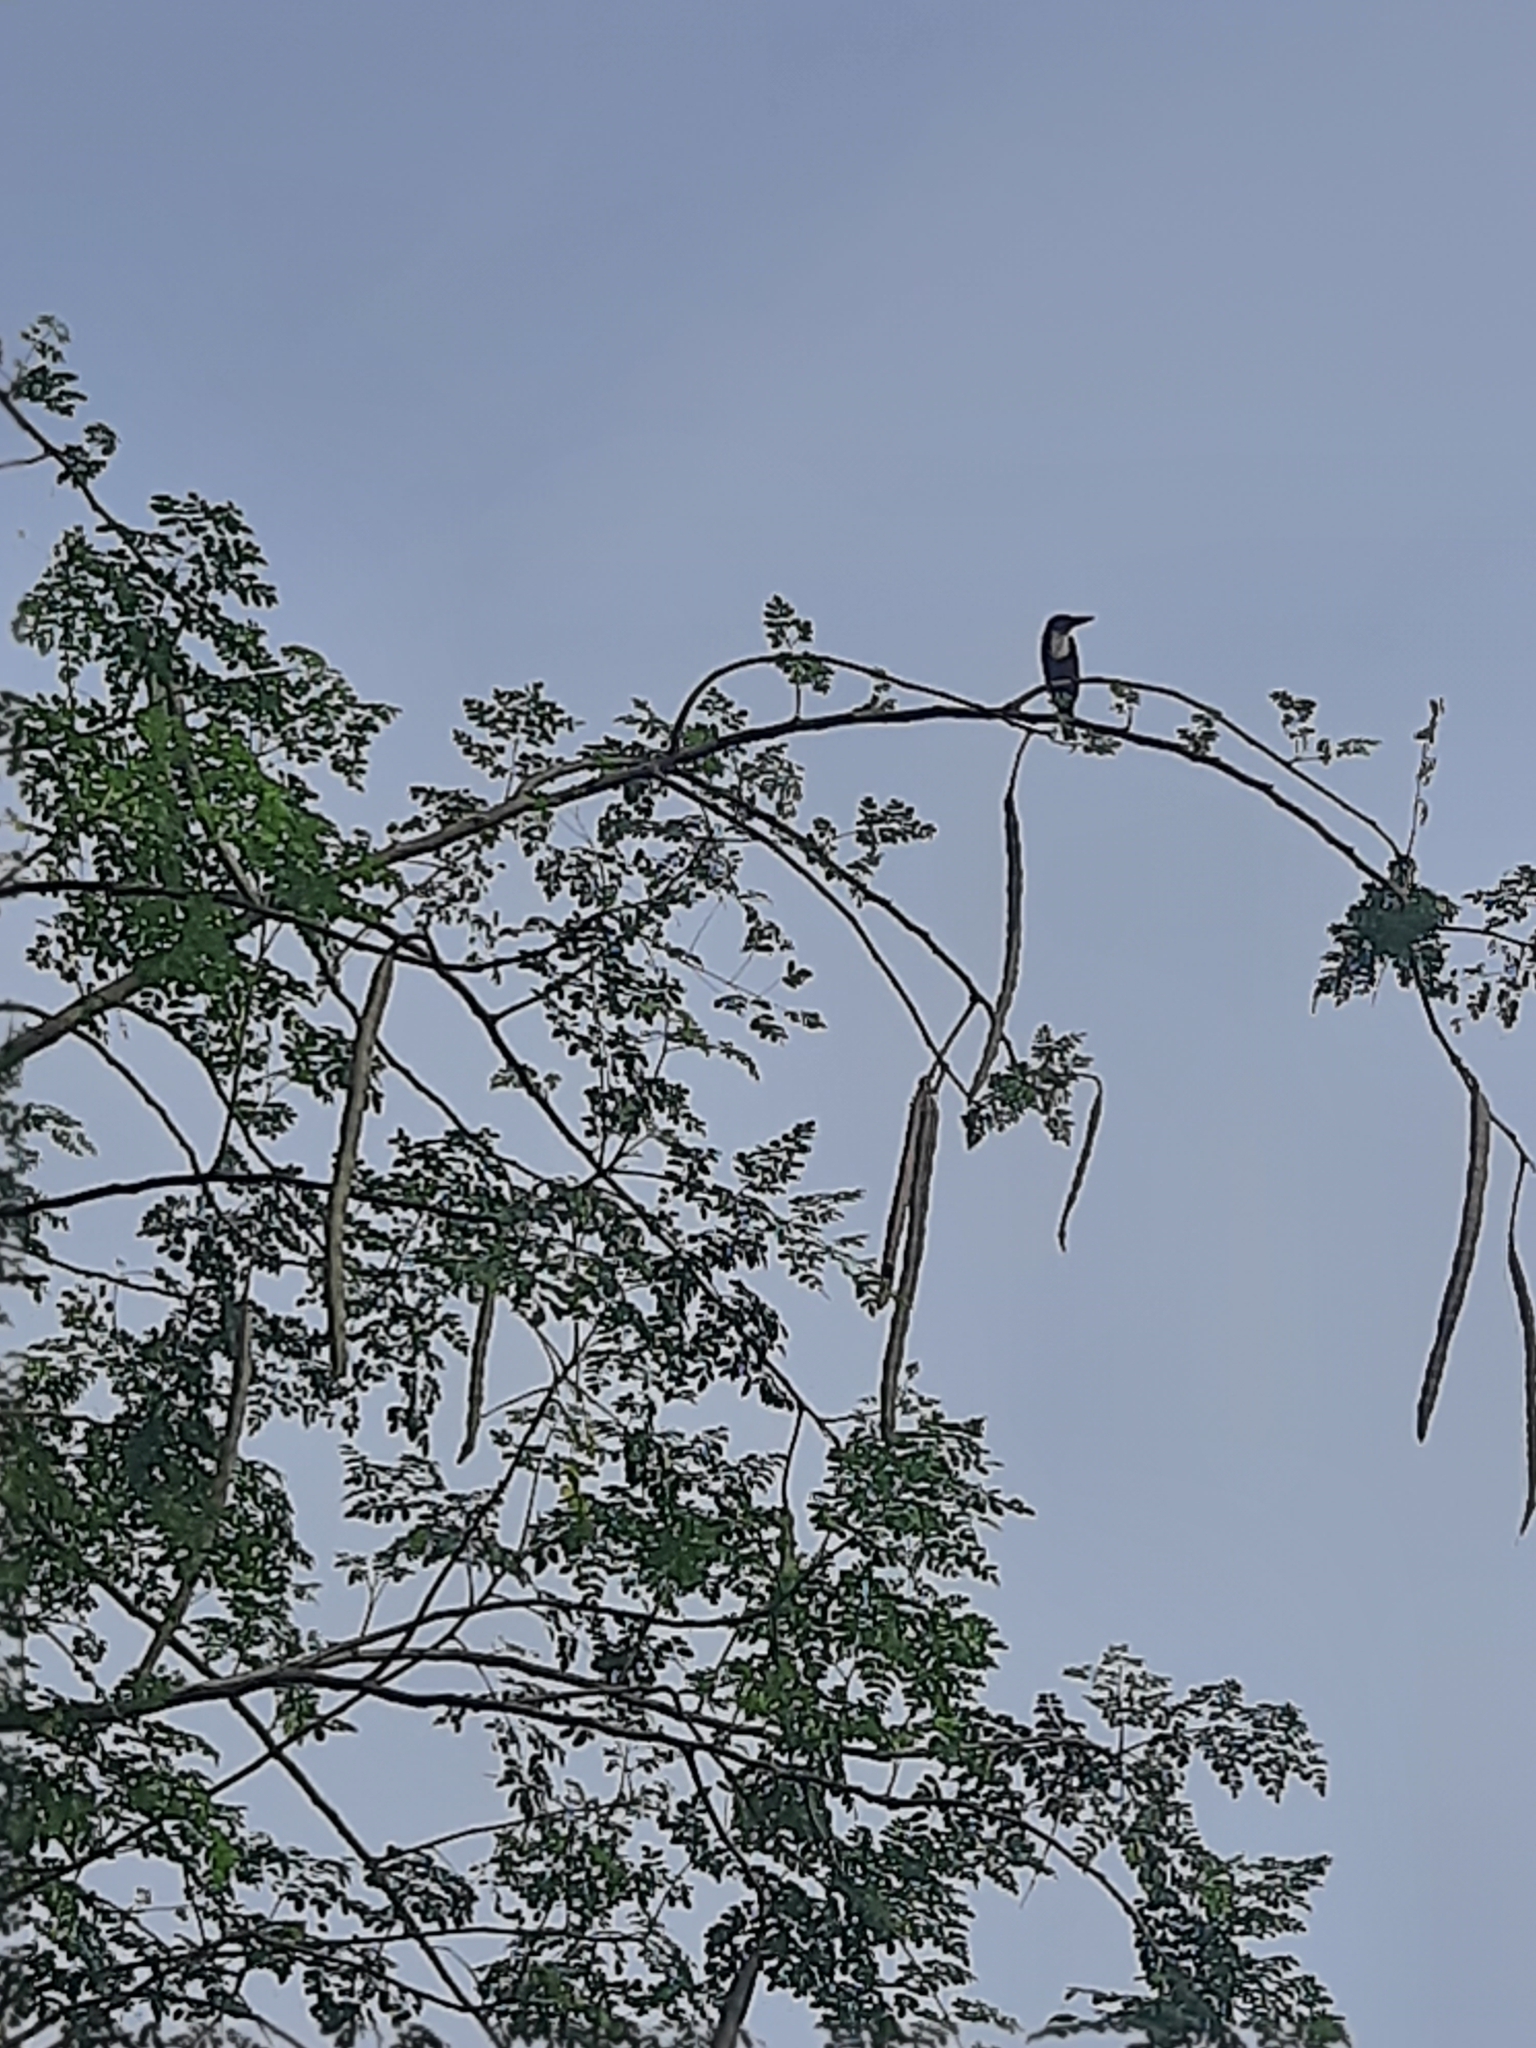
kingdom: Animalia
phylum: Chordata
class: Aves
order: Coraciiformes
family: Alcedinidae
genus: Halcyon
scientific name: Halcyon smyrnensis
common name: White-throated kingfisher
